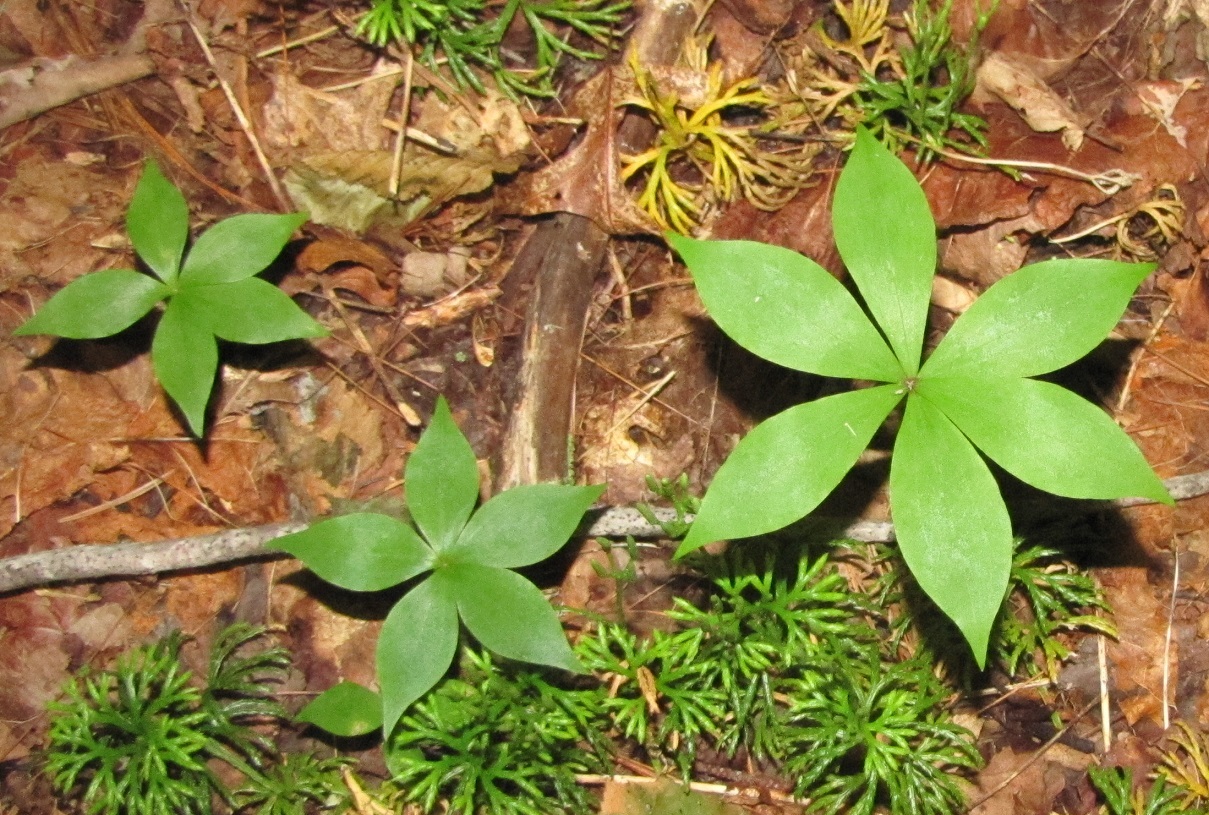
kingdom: Plantae
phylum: Tracheophyta
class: Liliopsida
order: Liliales
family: Liliaceae
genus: Medeola
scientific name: Medeola virginiana
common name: Indian cucumber-root
